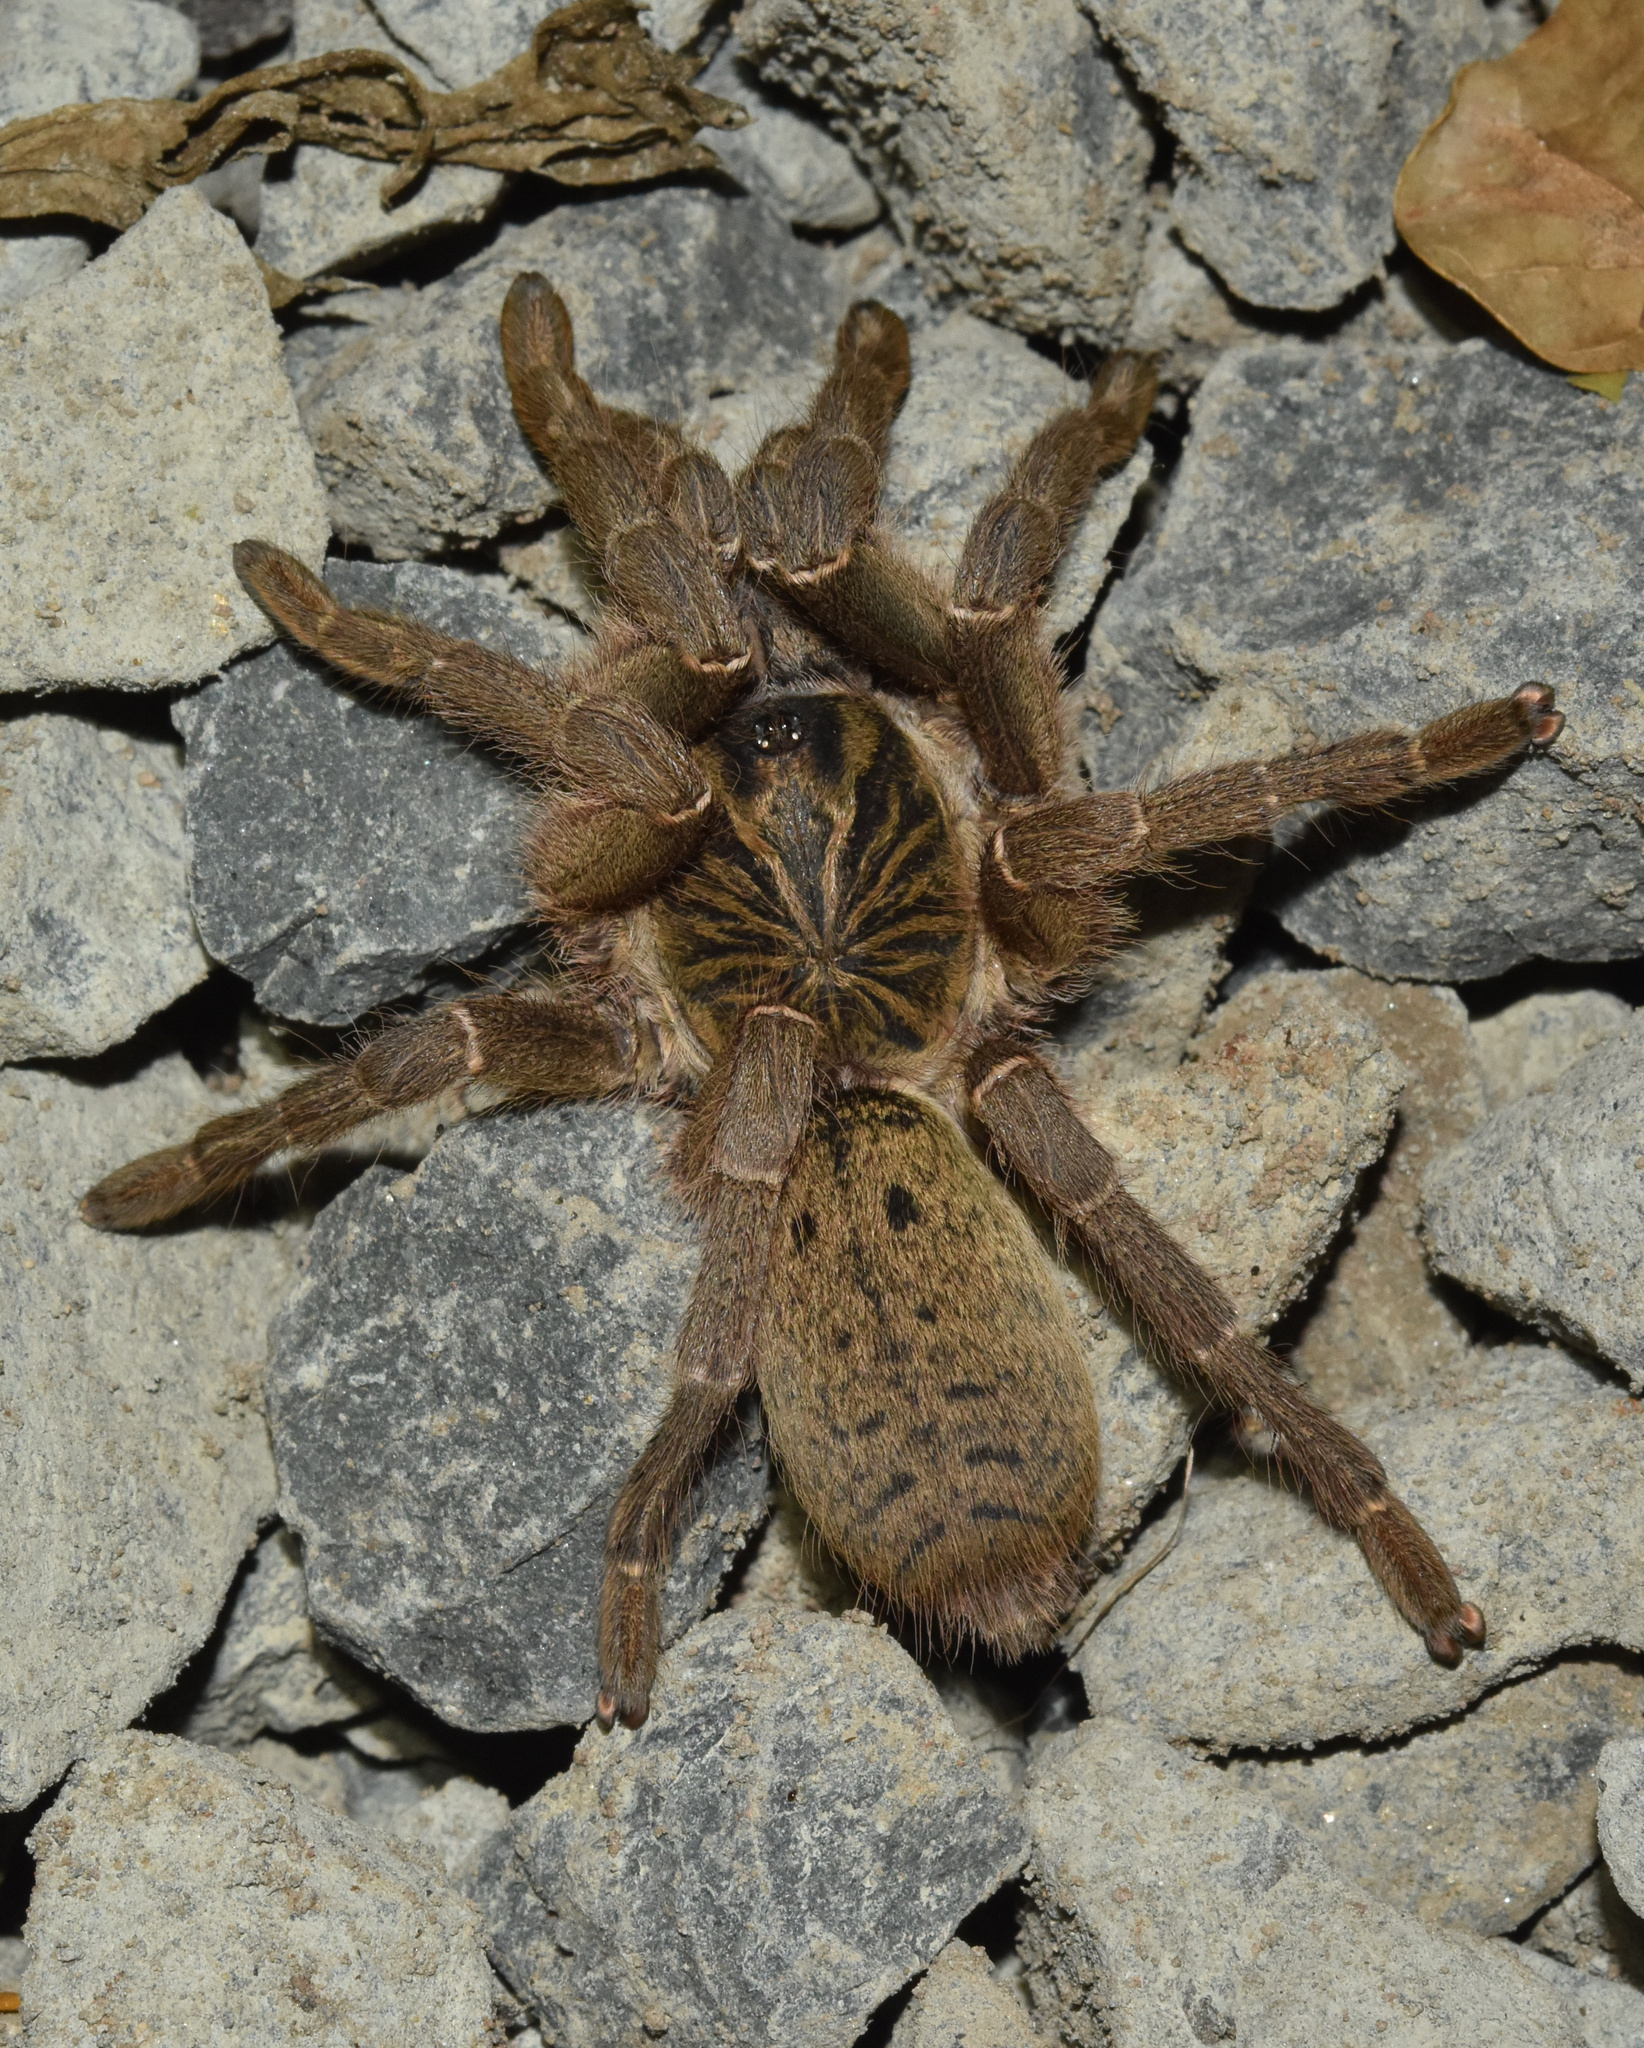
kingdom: Animalia
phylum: Arthropoda
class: Arachnida
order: Araneae
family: Theraphosidae
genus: Harpactira
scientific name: Harpactira curator
